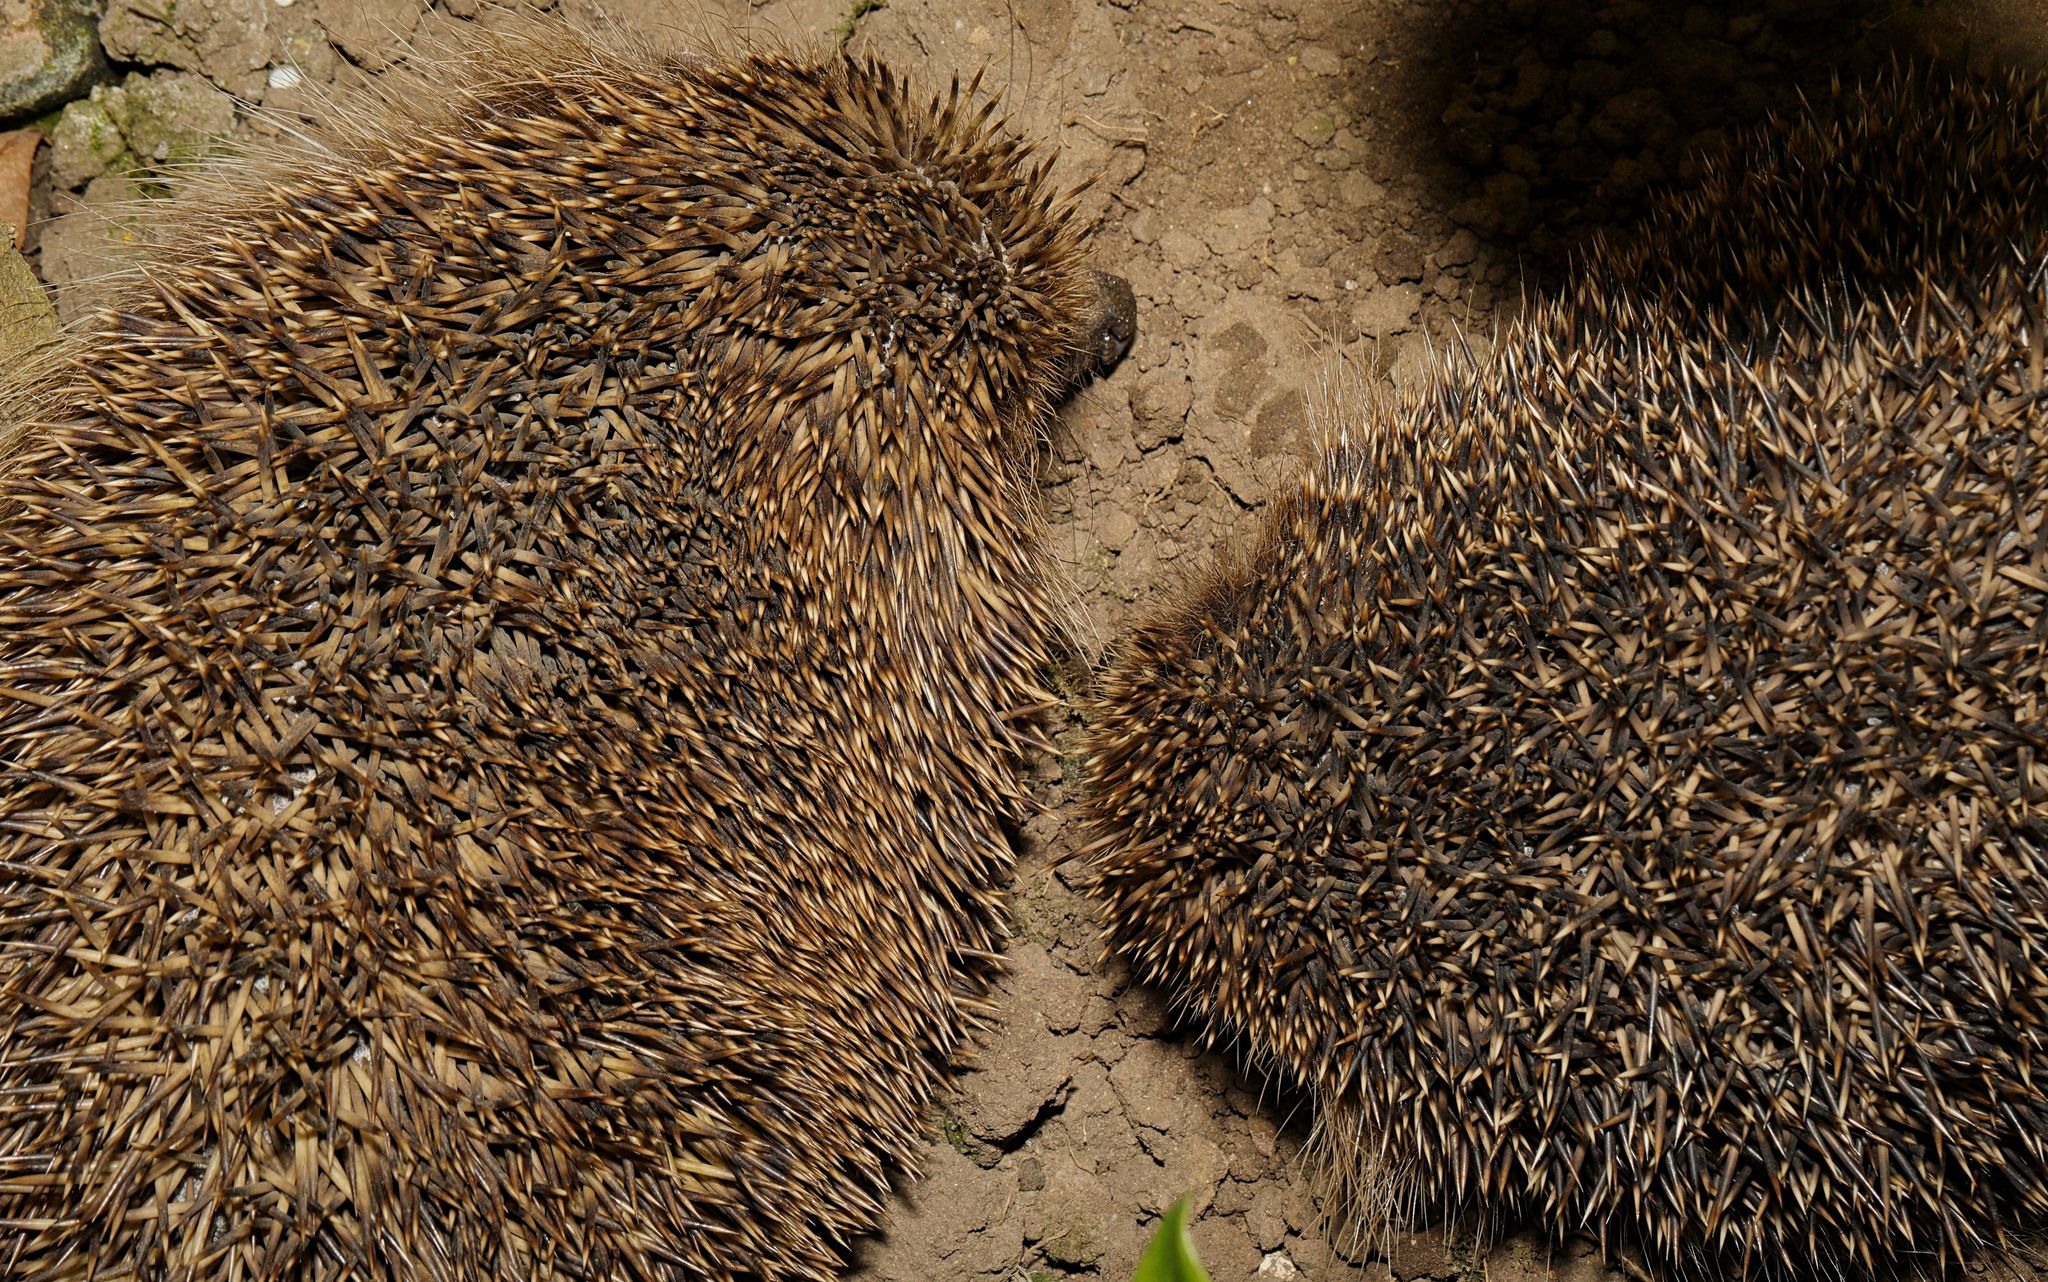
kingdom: Animalia
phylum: Chordata
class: Mammalia
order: Erinaceomorpha
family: Erinaceidae
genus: Erinaceus
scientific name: Erinaceus europaeus
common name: West european hedgehog
